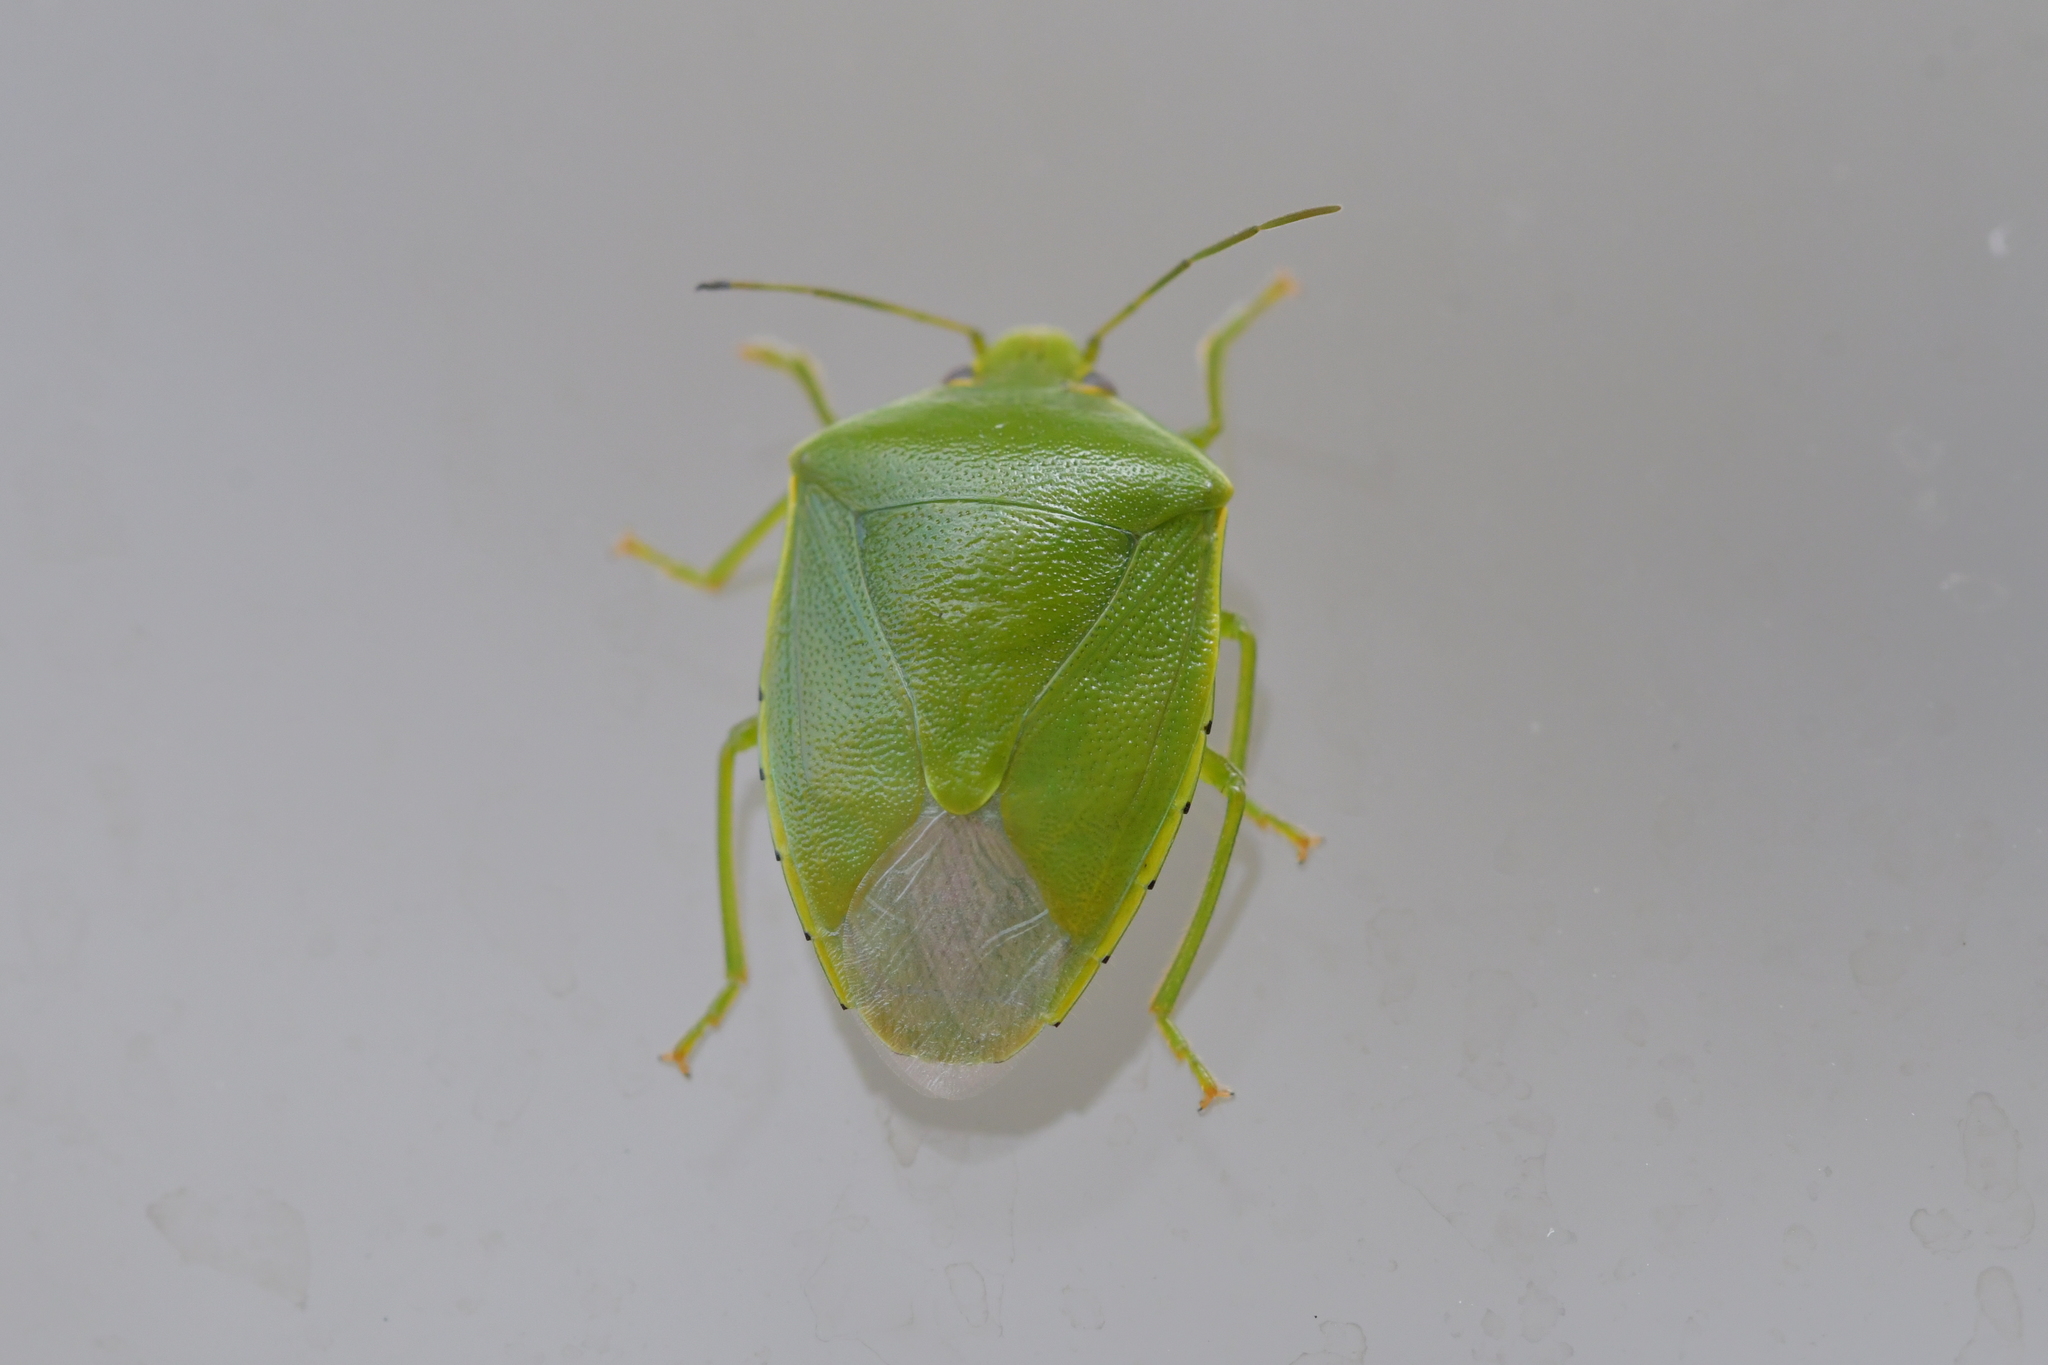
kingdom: Animalia
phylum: Arthropoda
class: Insecta
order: Hemiptera
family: Pentatomidae
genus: Glaucias
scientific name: Glaucias amyota
